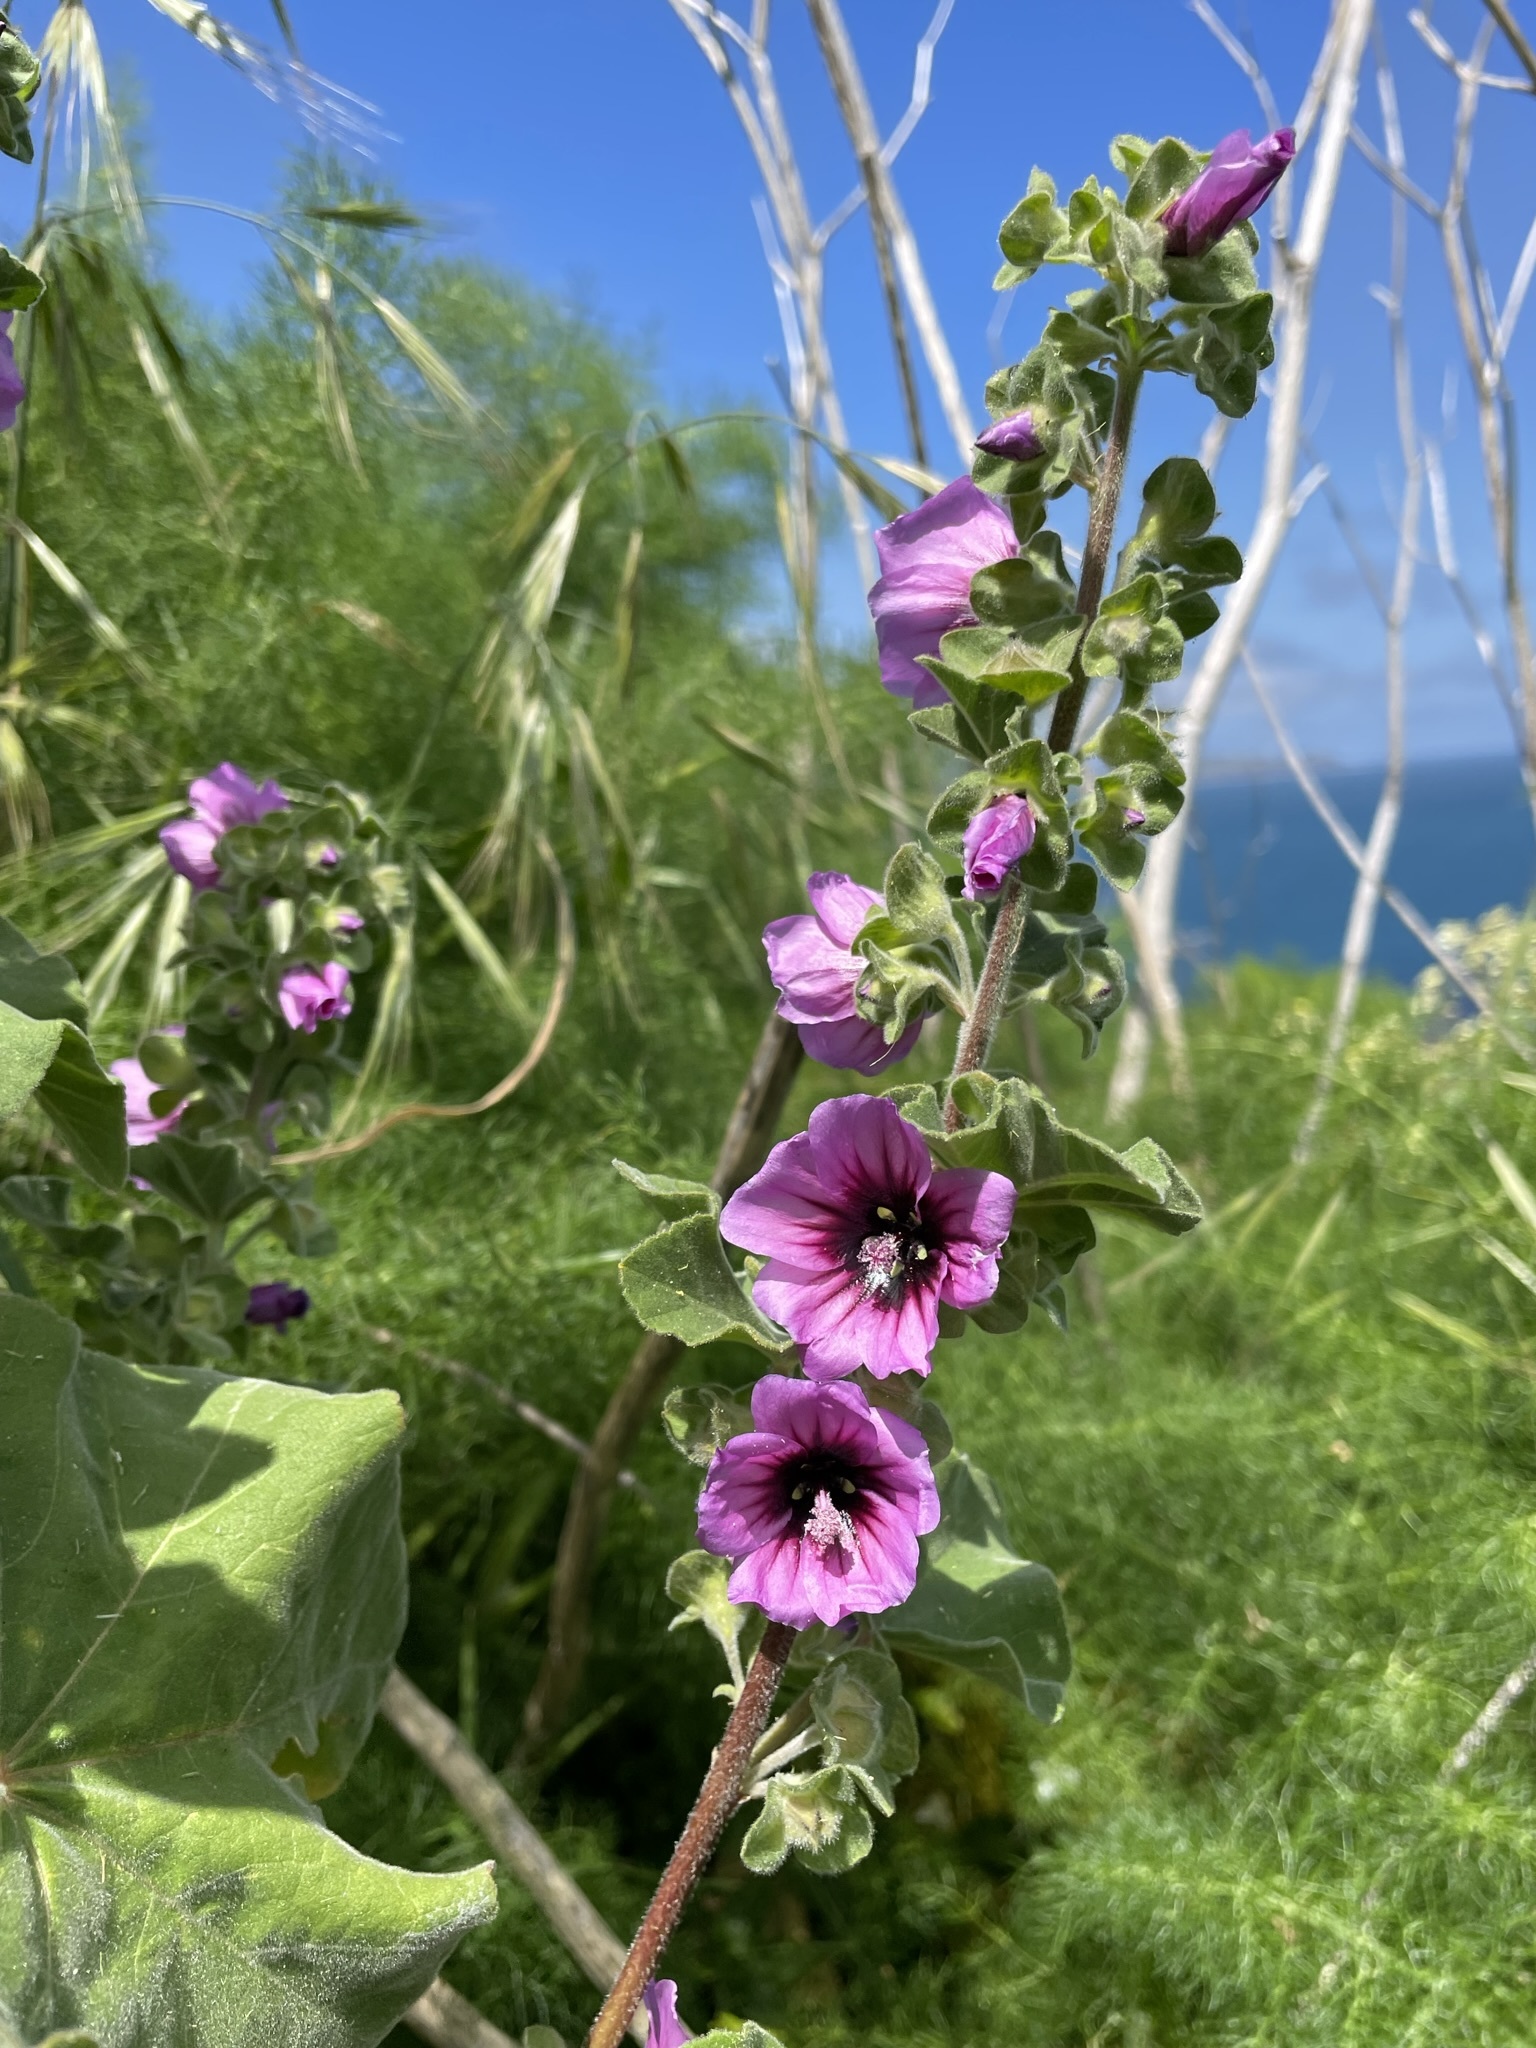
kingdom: Plantae
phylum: Tracheophyta
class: Magnoliopsida
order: Malvales
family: Malvaceae
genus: Malva
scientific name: Malva arborea
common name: Tree mallow
